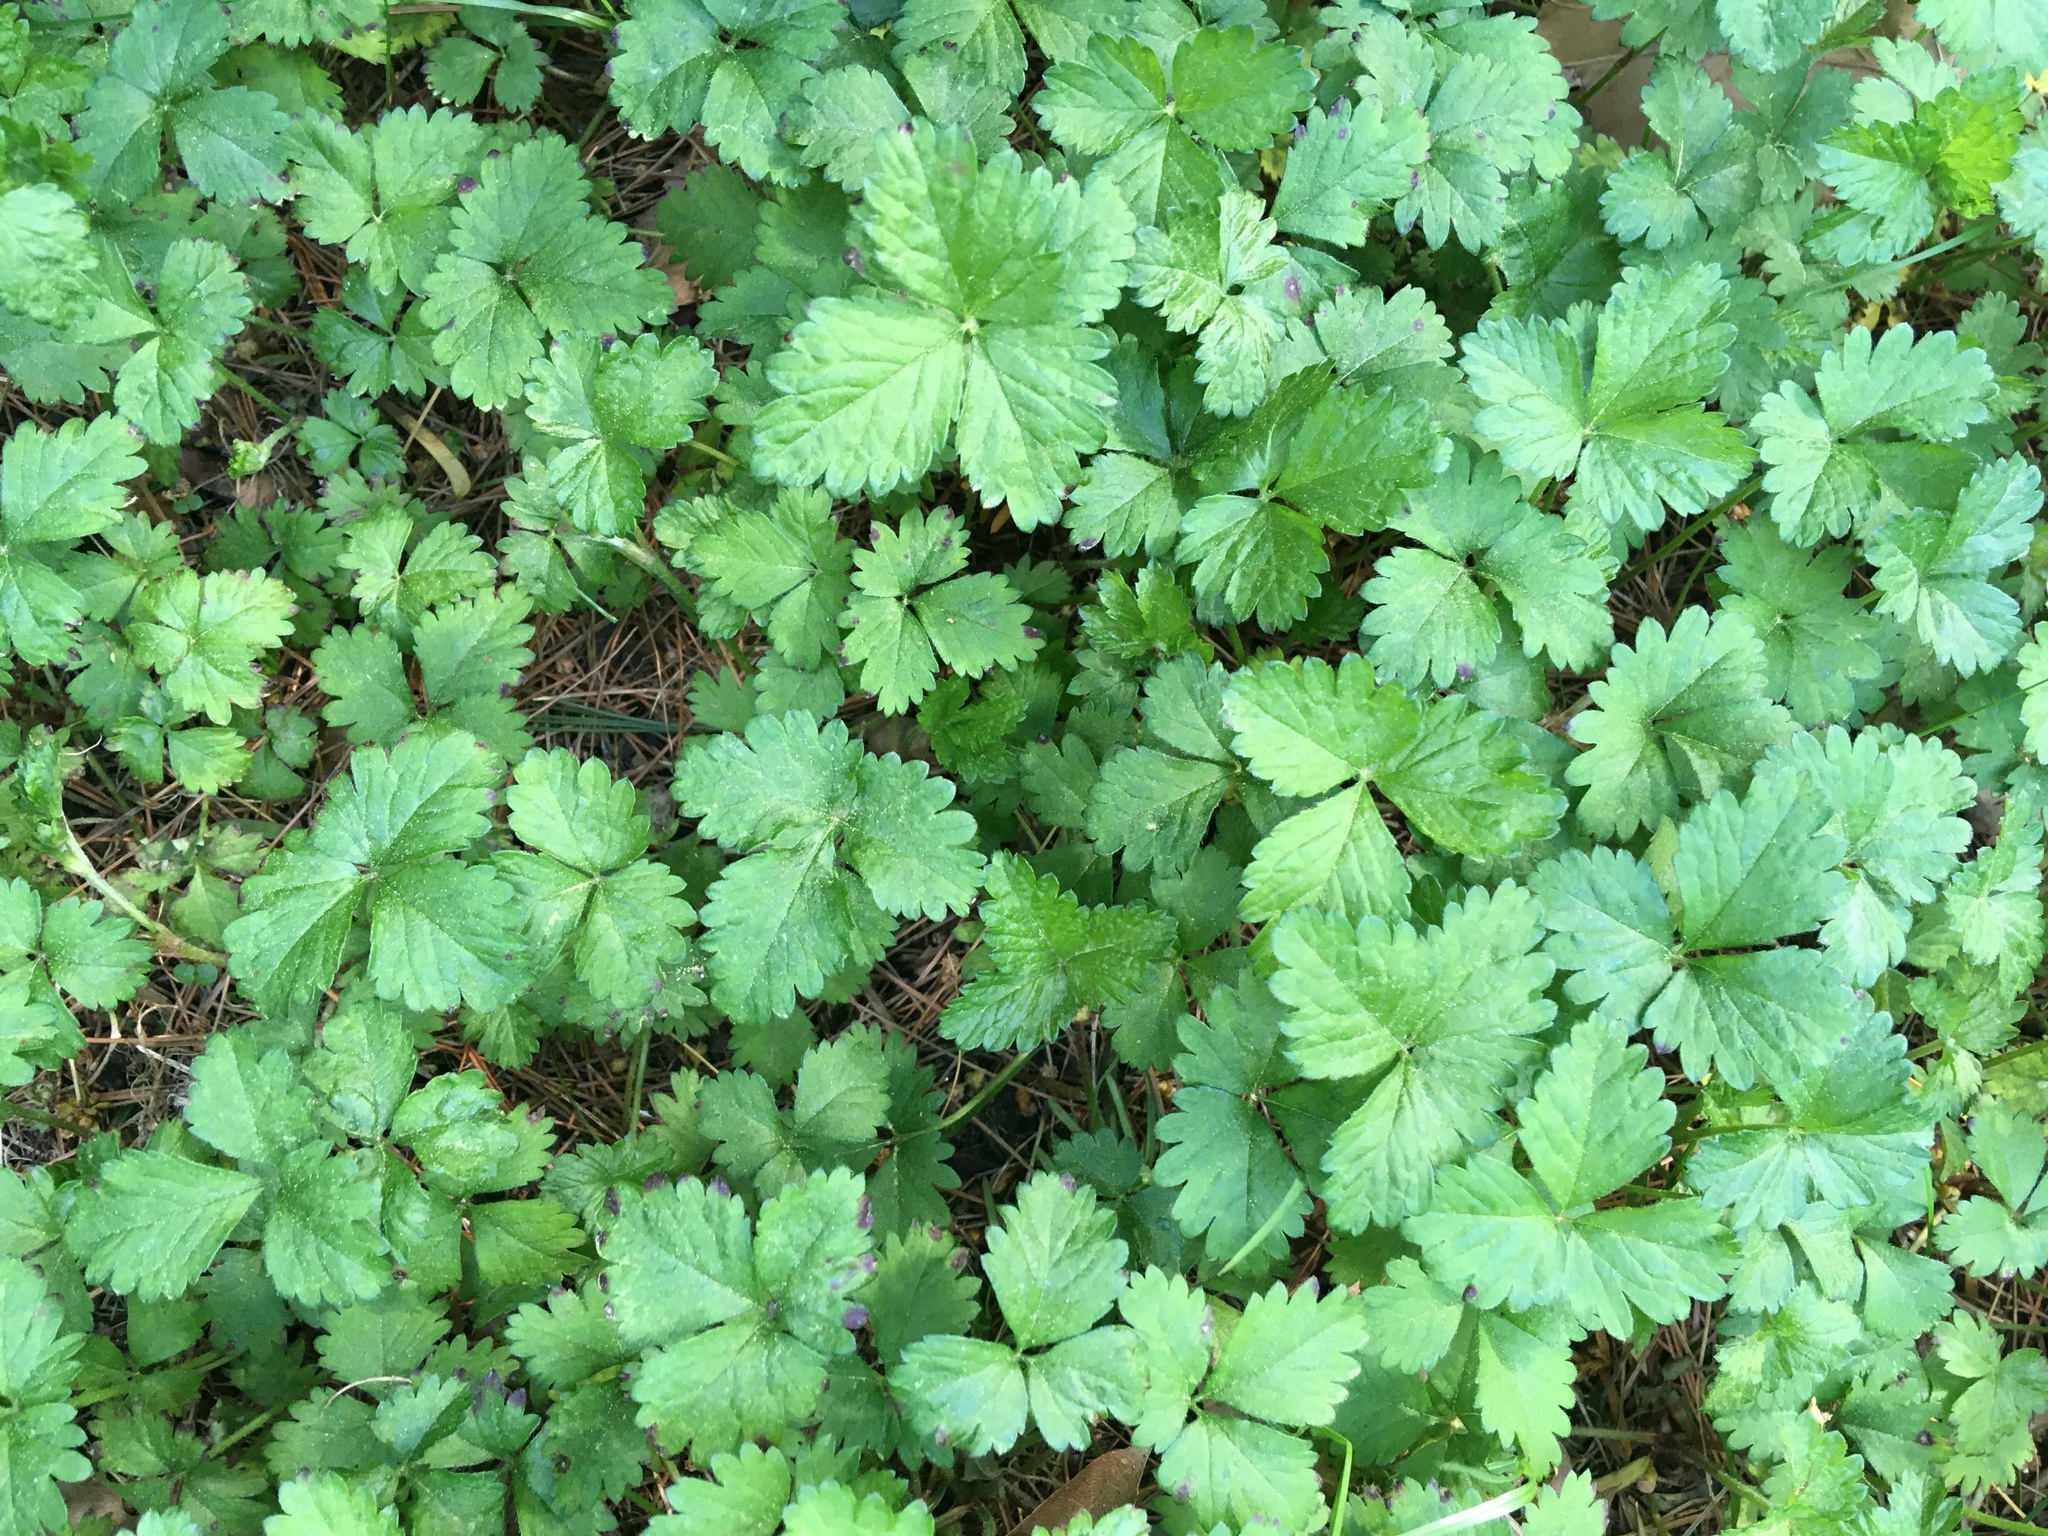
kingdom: Plantae
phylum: Tracheophyta
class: Magnoliopsida
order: Rosales
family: Rosaceae
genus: Potentilla
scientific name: Potentilla indica
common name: Yellow-flowered strawberry
